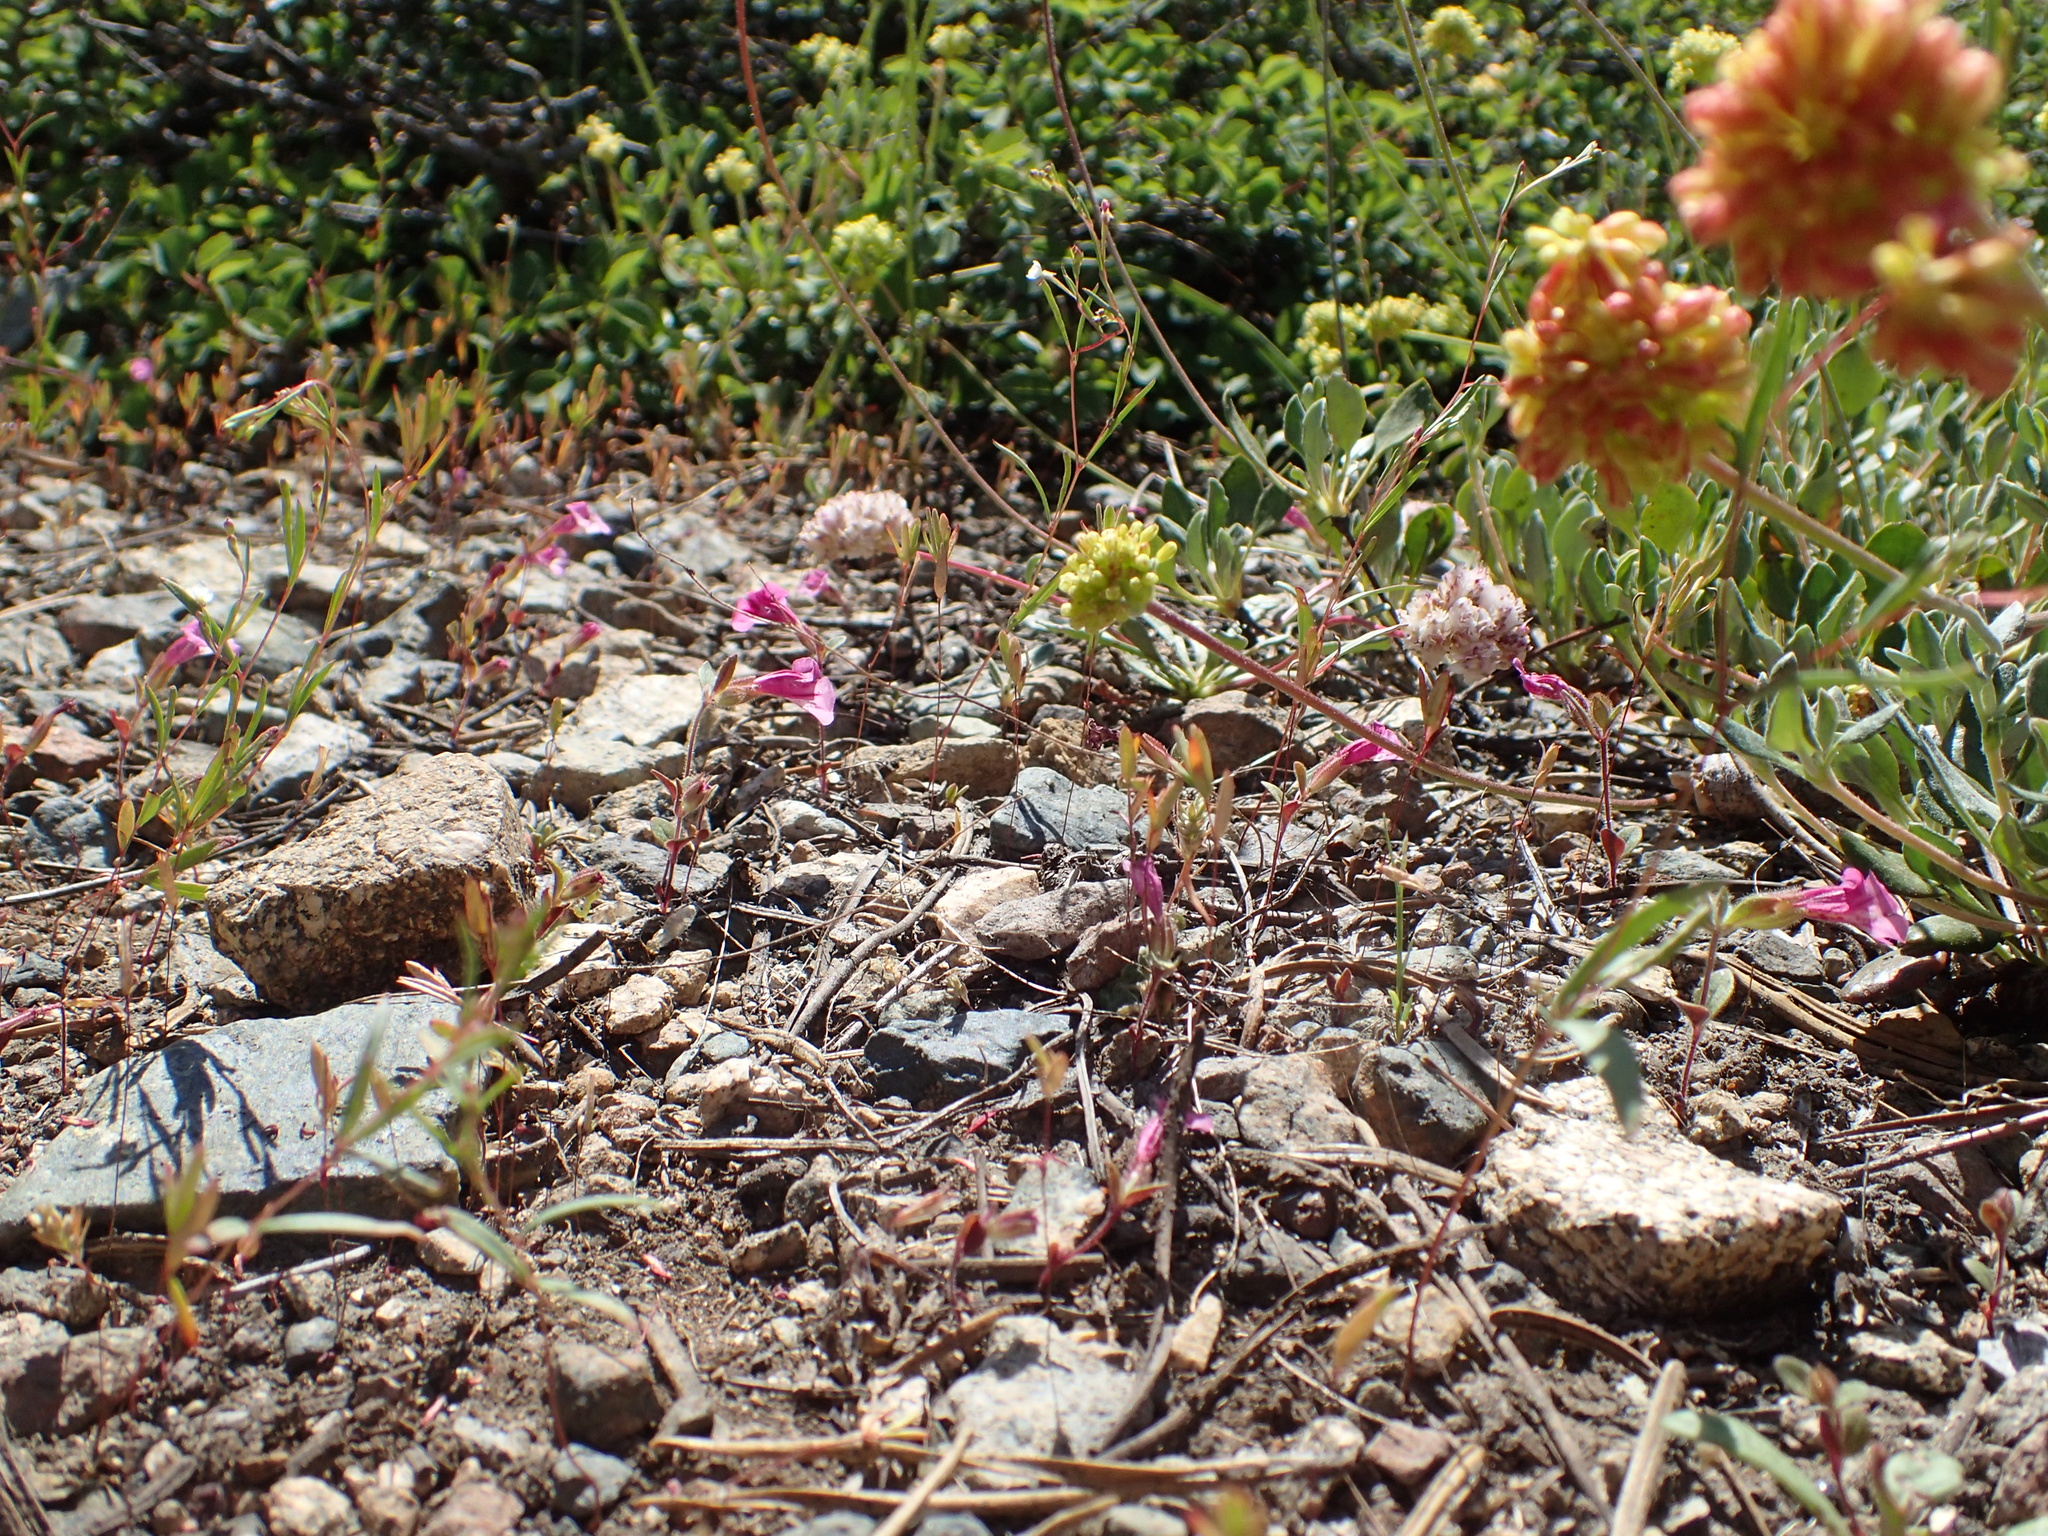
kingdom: Plantae
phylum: Tracheophyta
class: Magnoliopsida
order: Lamiales
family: Phrymaceae
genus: Diplacus
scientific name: Diplacus layneae
